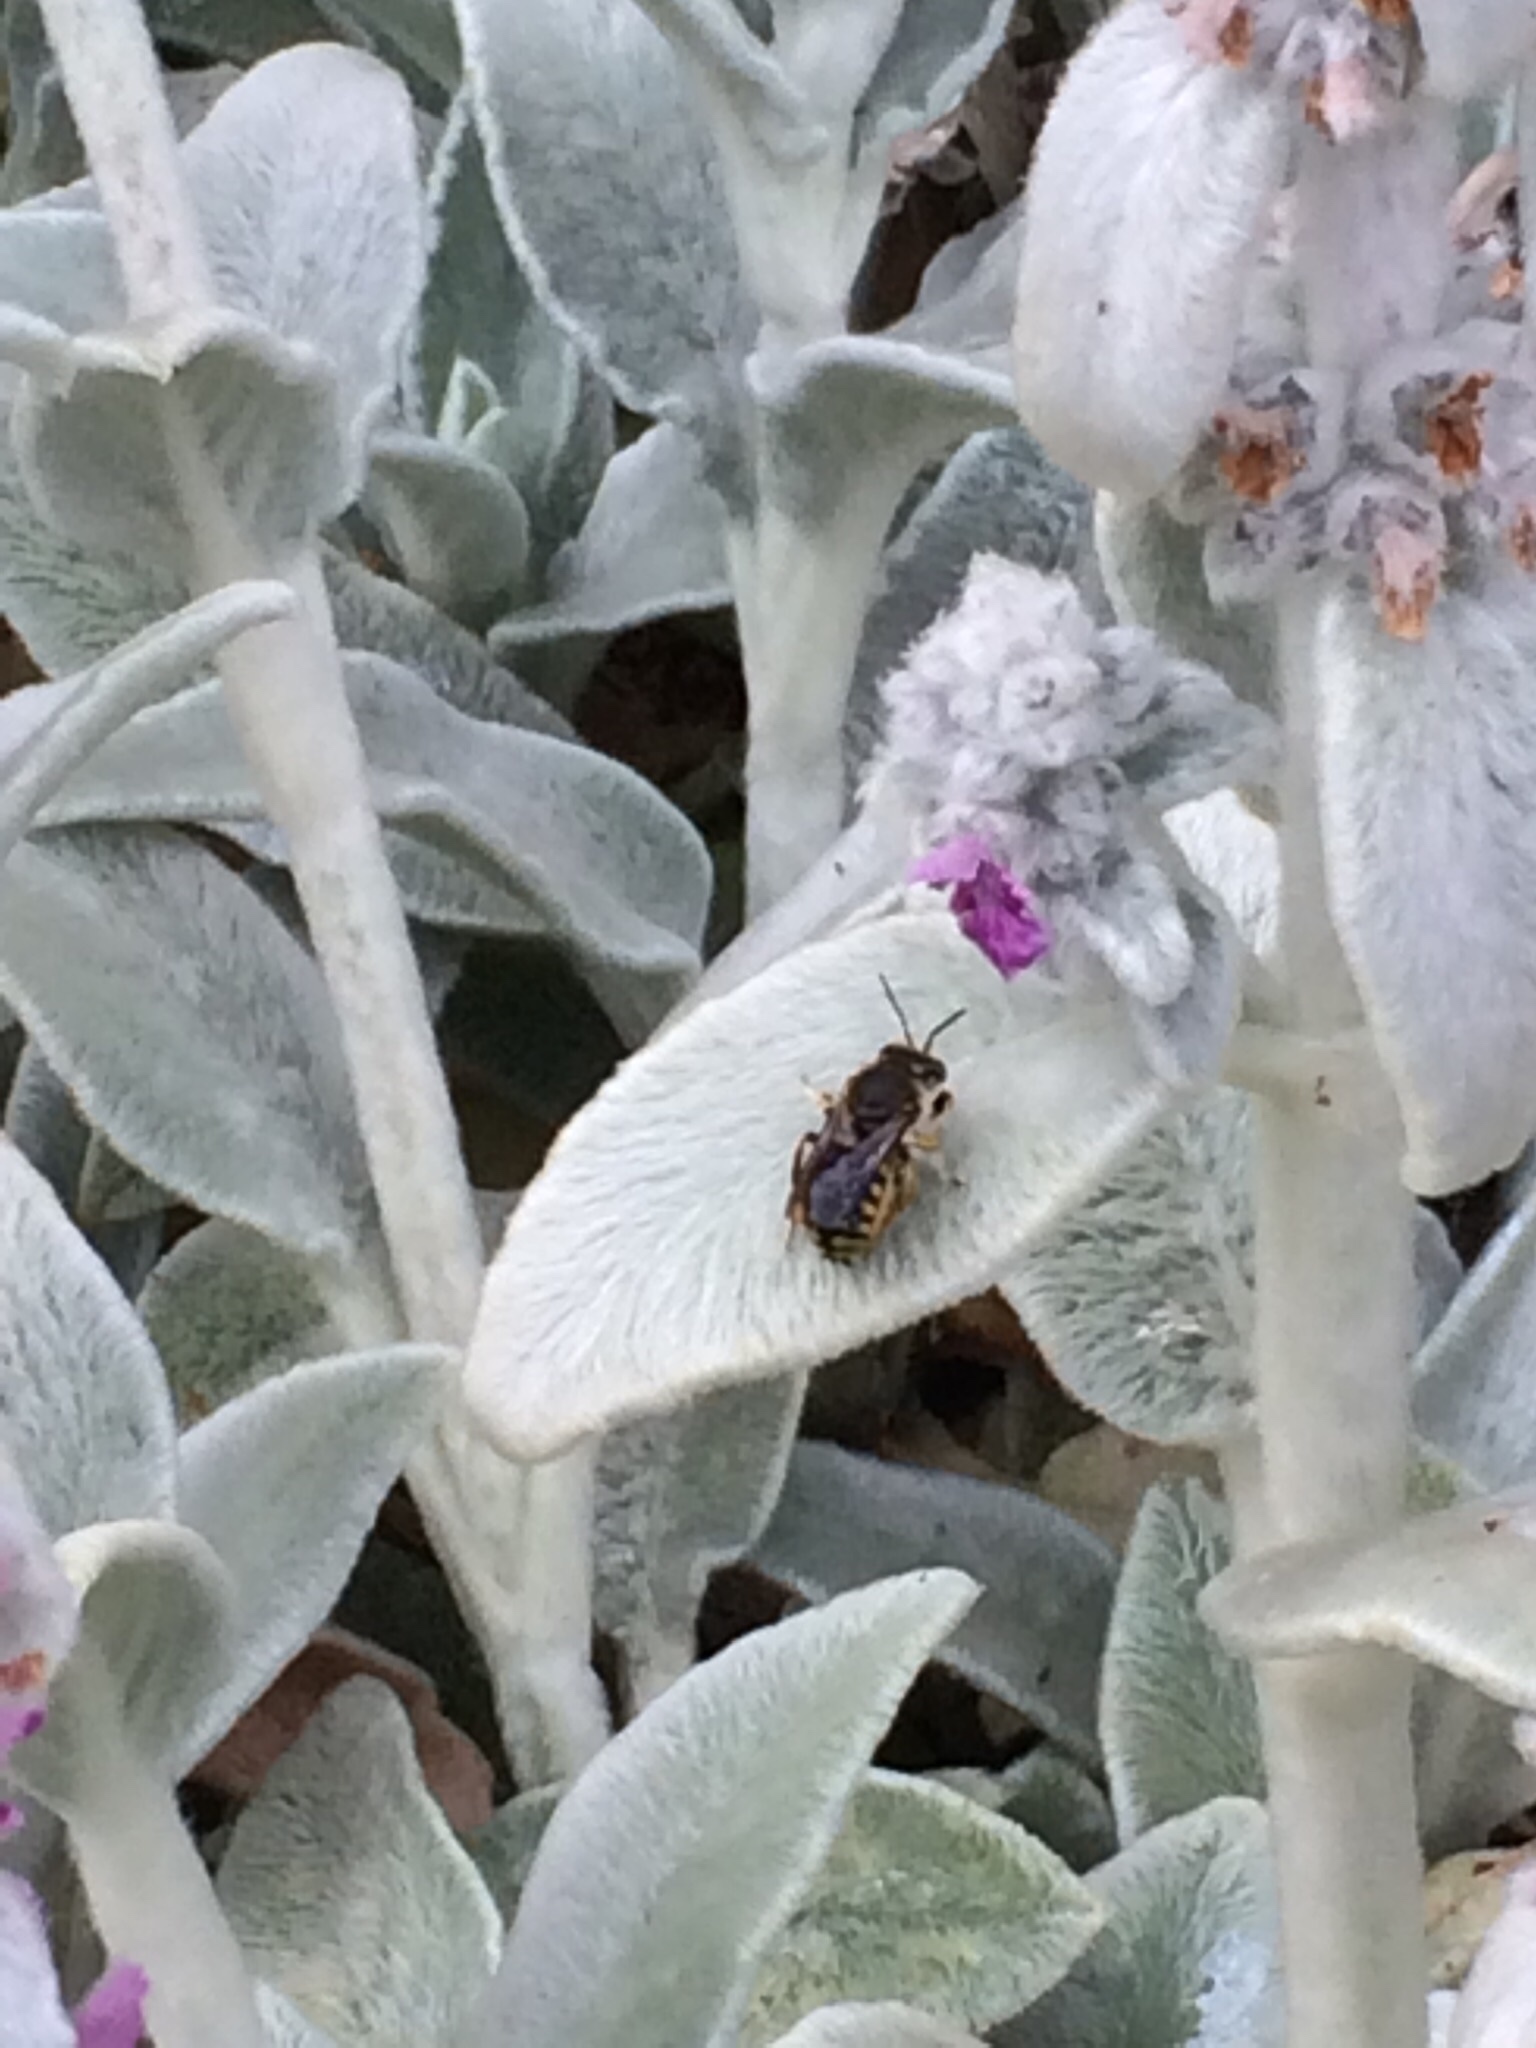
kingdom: Animalia
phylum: Arthropoda
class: Insecta
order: Hymenoptera
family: Megachilidae
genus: Anthidium
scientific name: Anthidium manicatum
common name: Wool carder bee
